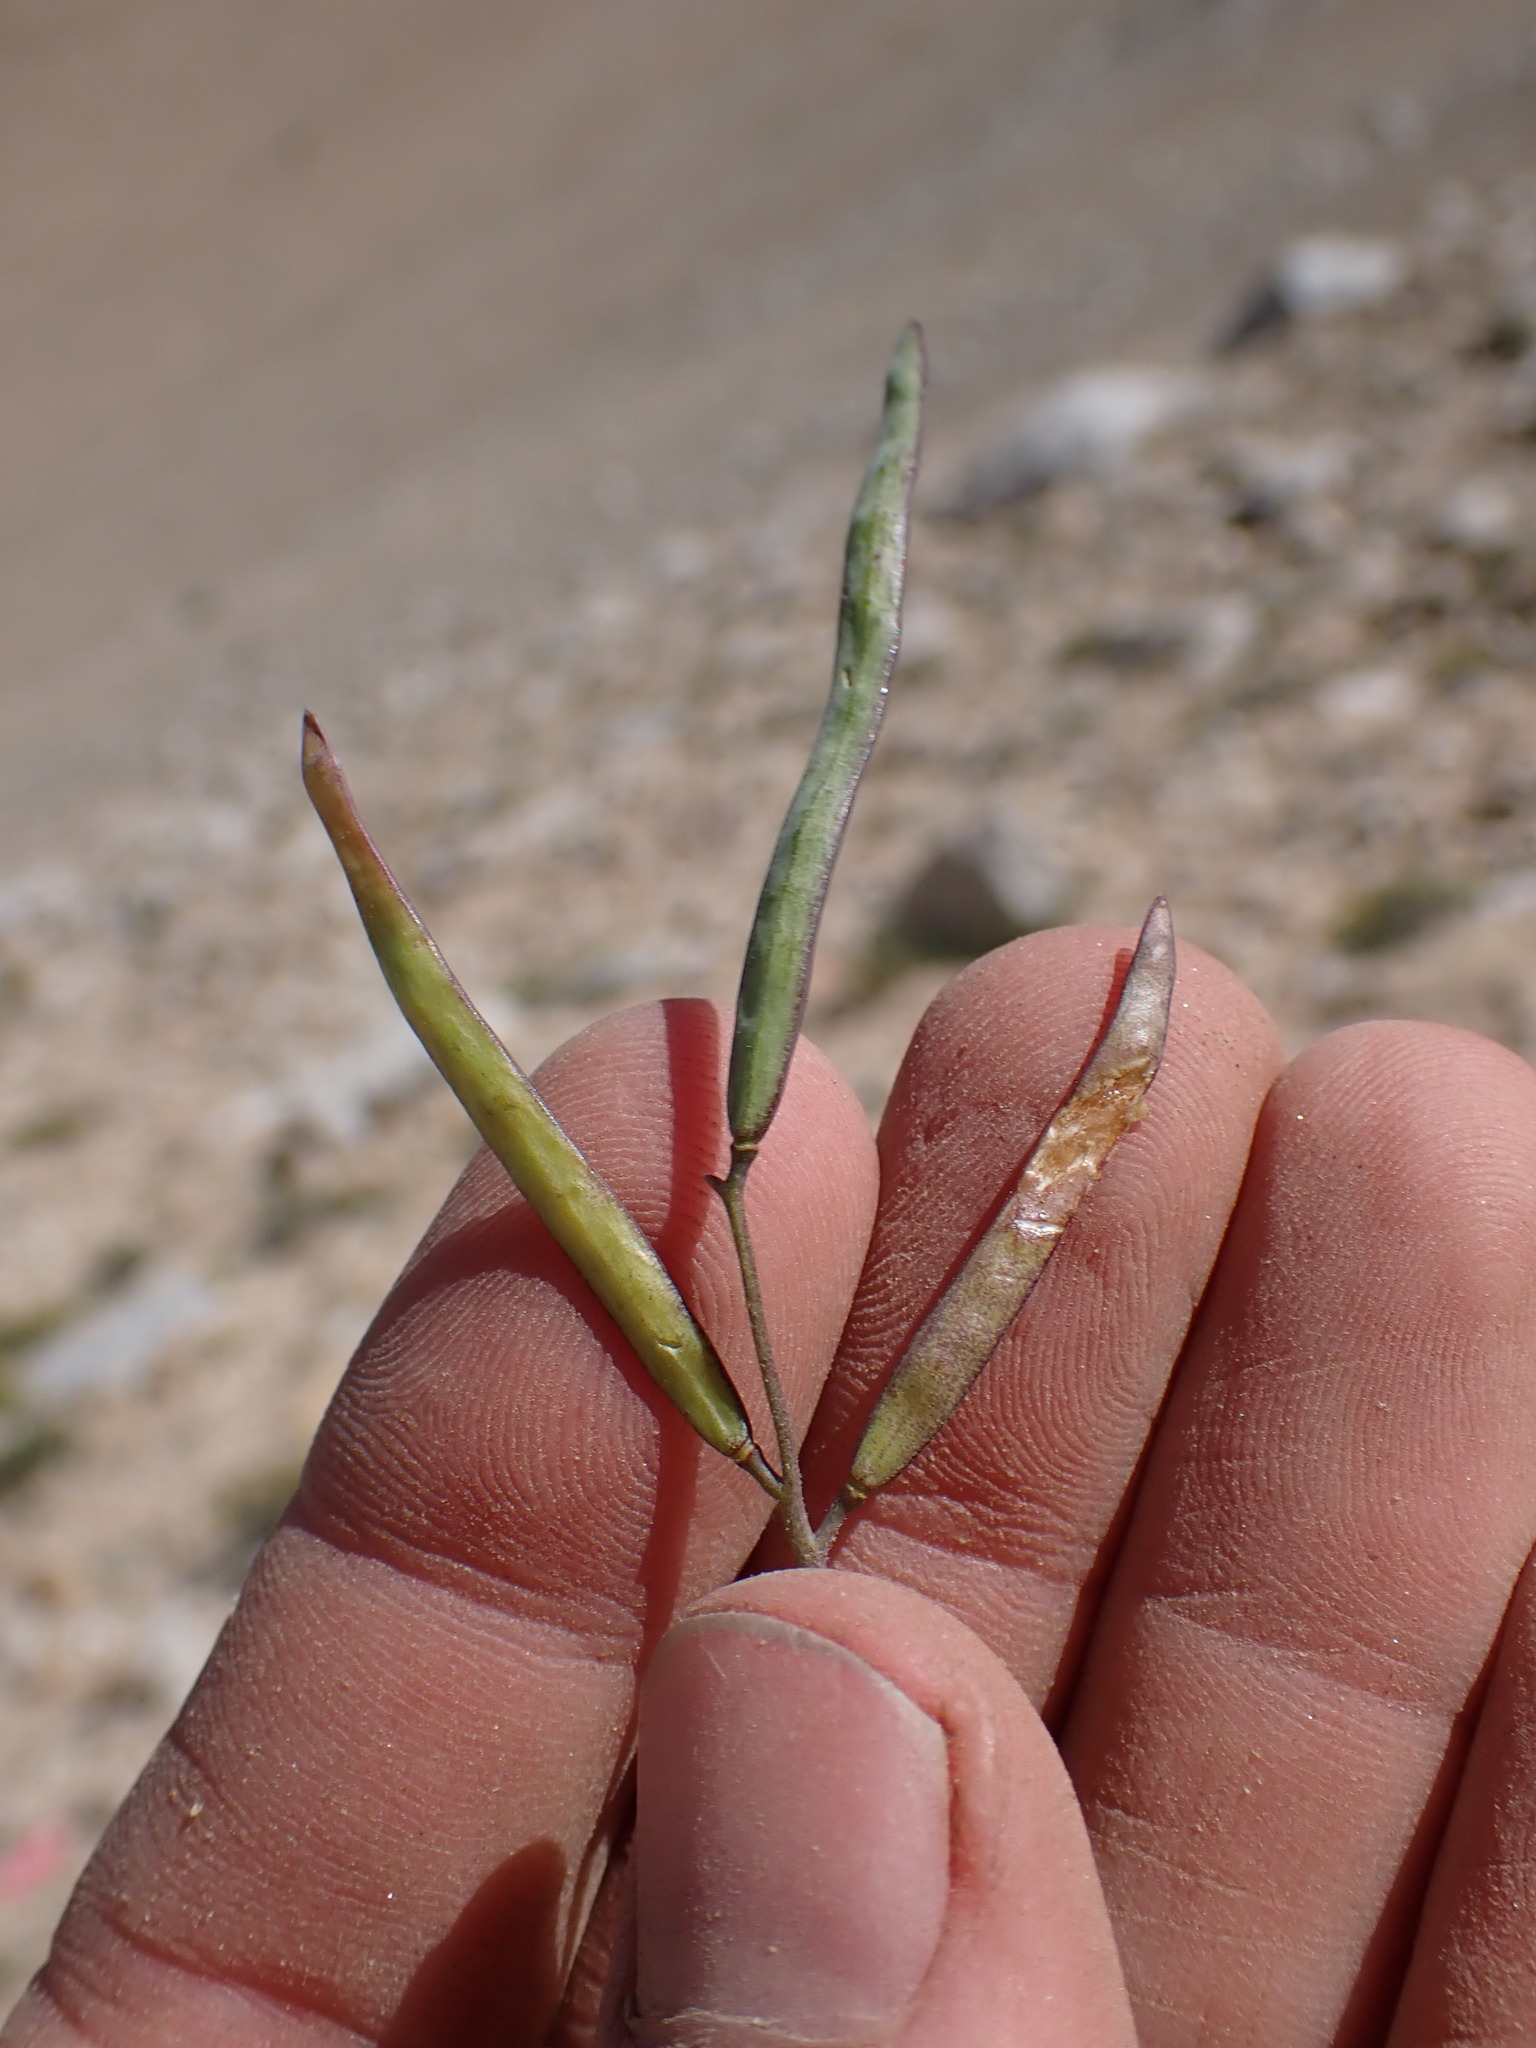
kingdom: Plantae
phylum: Tracheophyta
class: Magnoliopsida
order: Brassicales
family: Brassicaceae
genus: Boechera
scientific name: Boechera pinzliae
